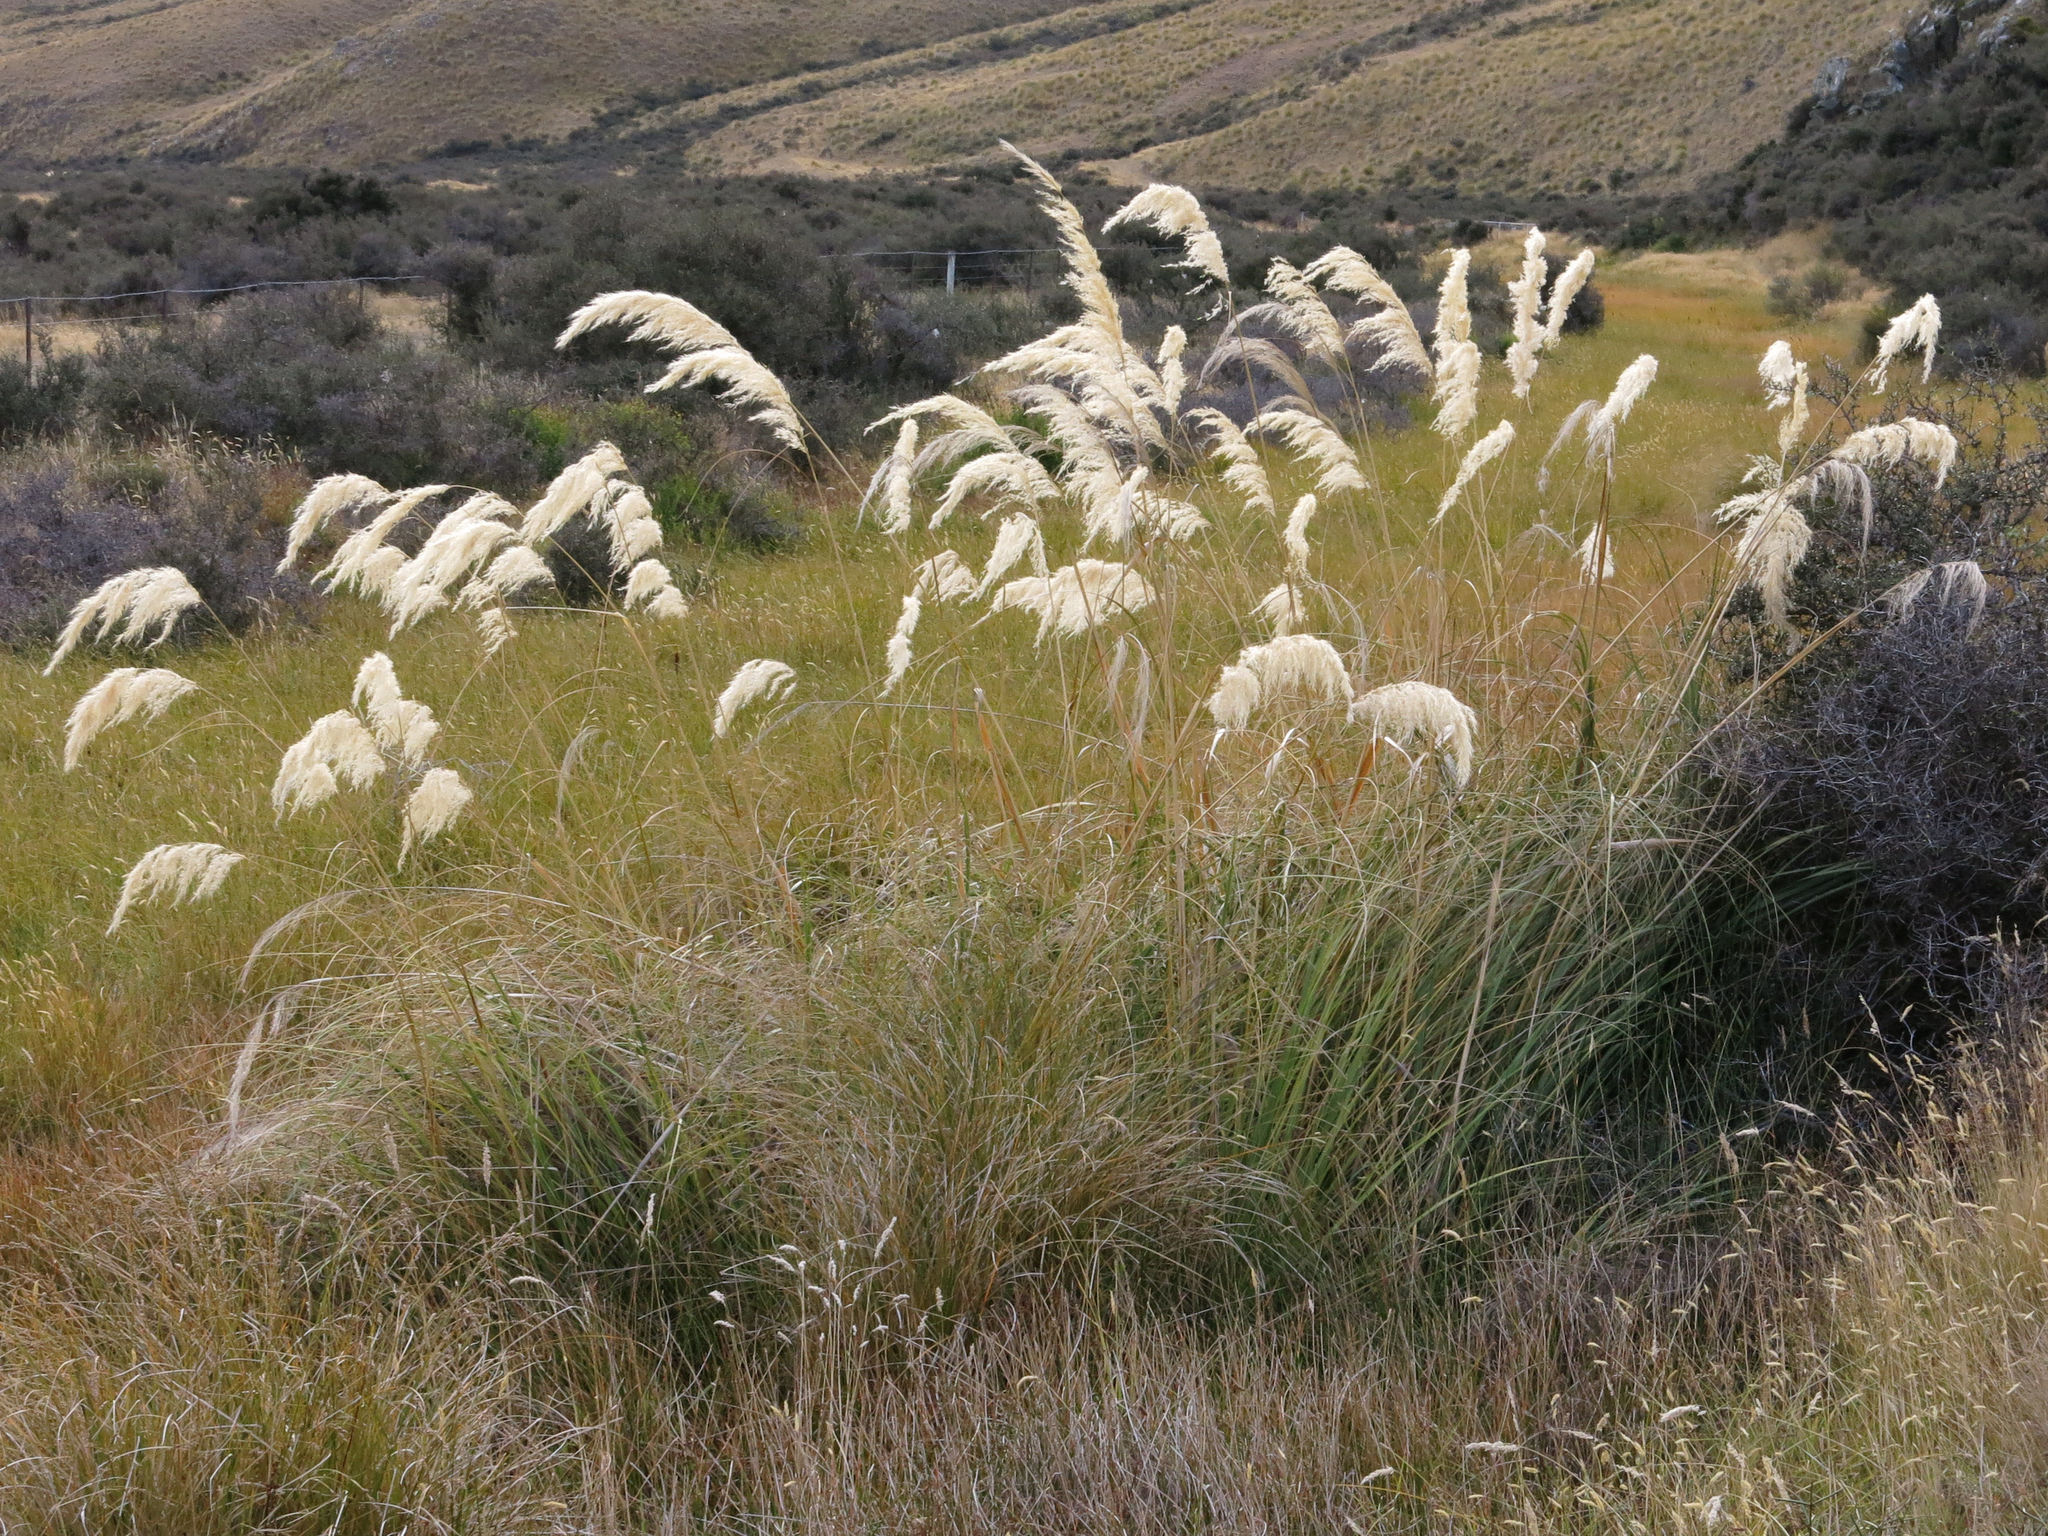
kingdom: Plantae
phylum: Tracheophyta
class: Liliopsida
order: Poales
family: Poaceae
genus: Austroderia
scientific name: Austroderia richardii
